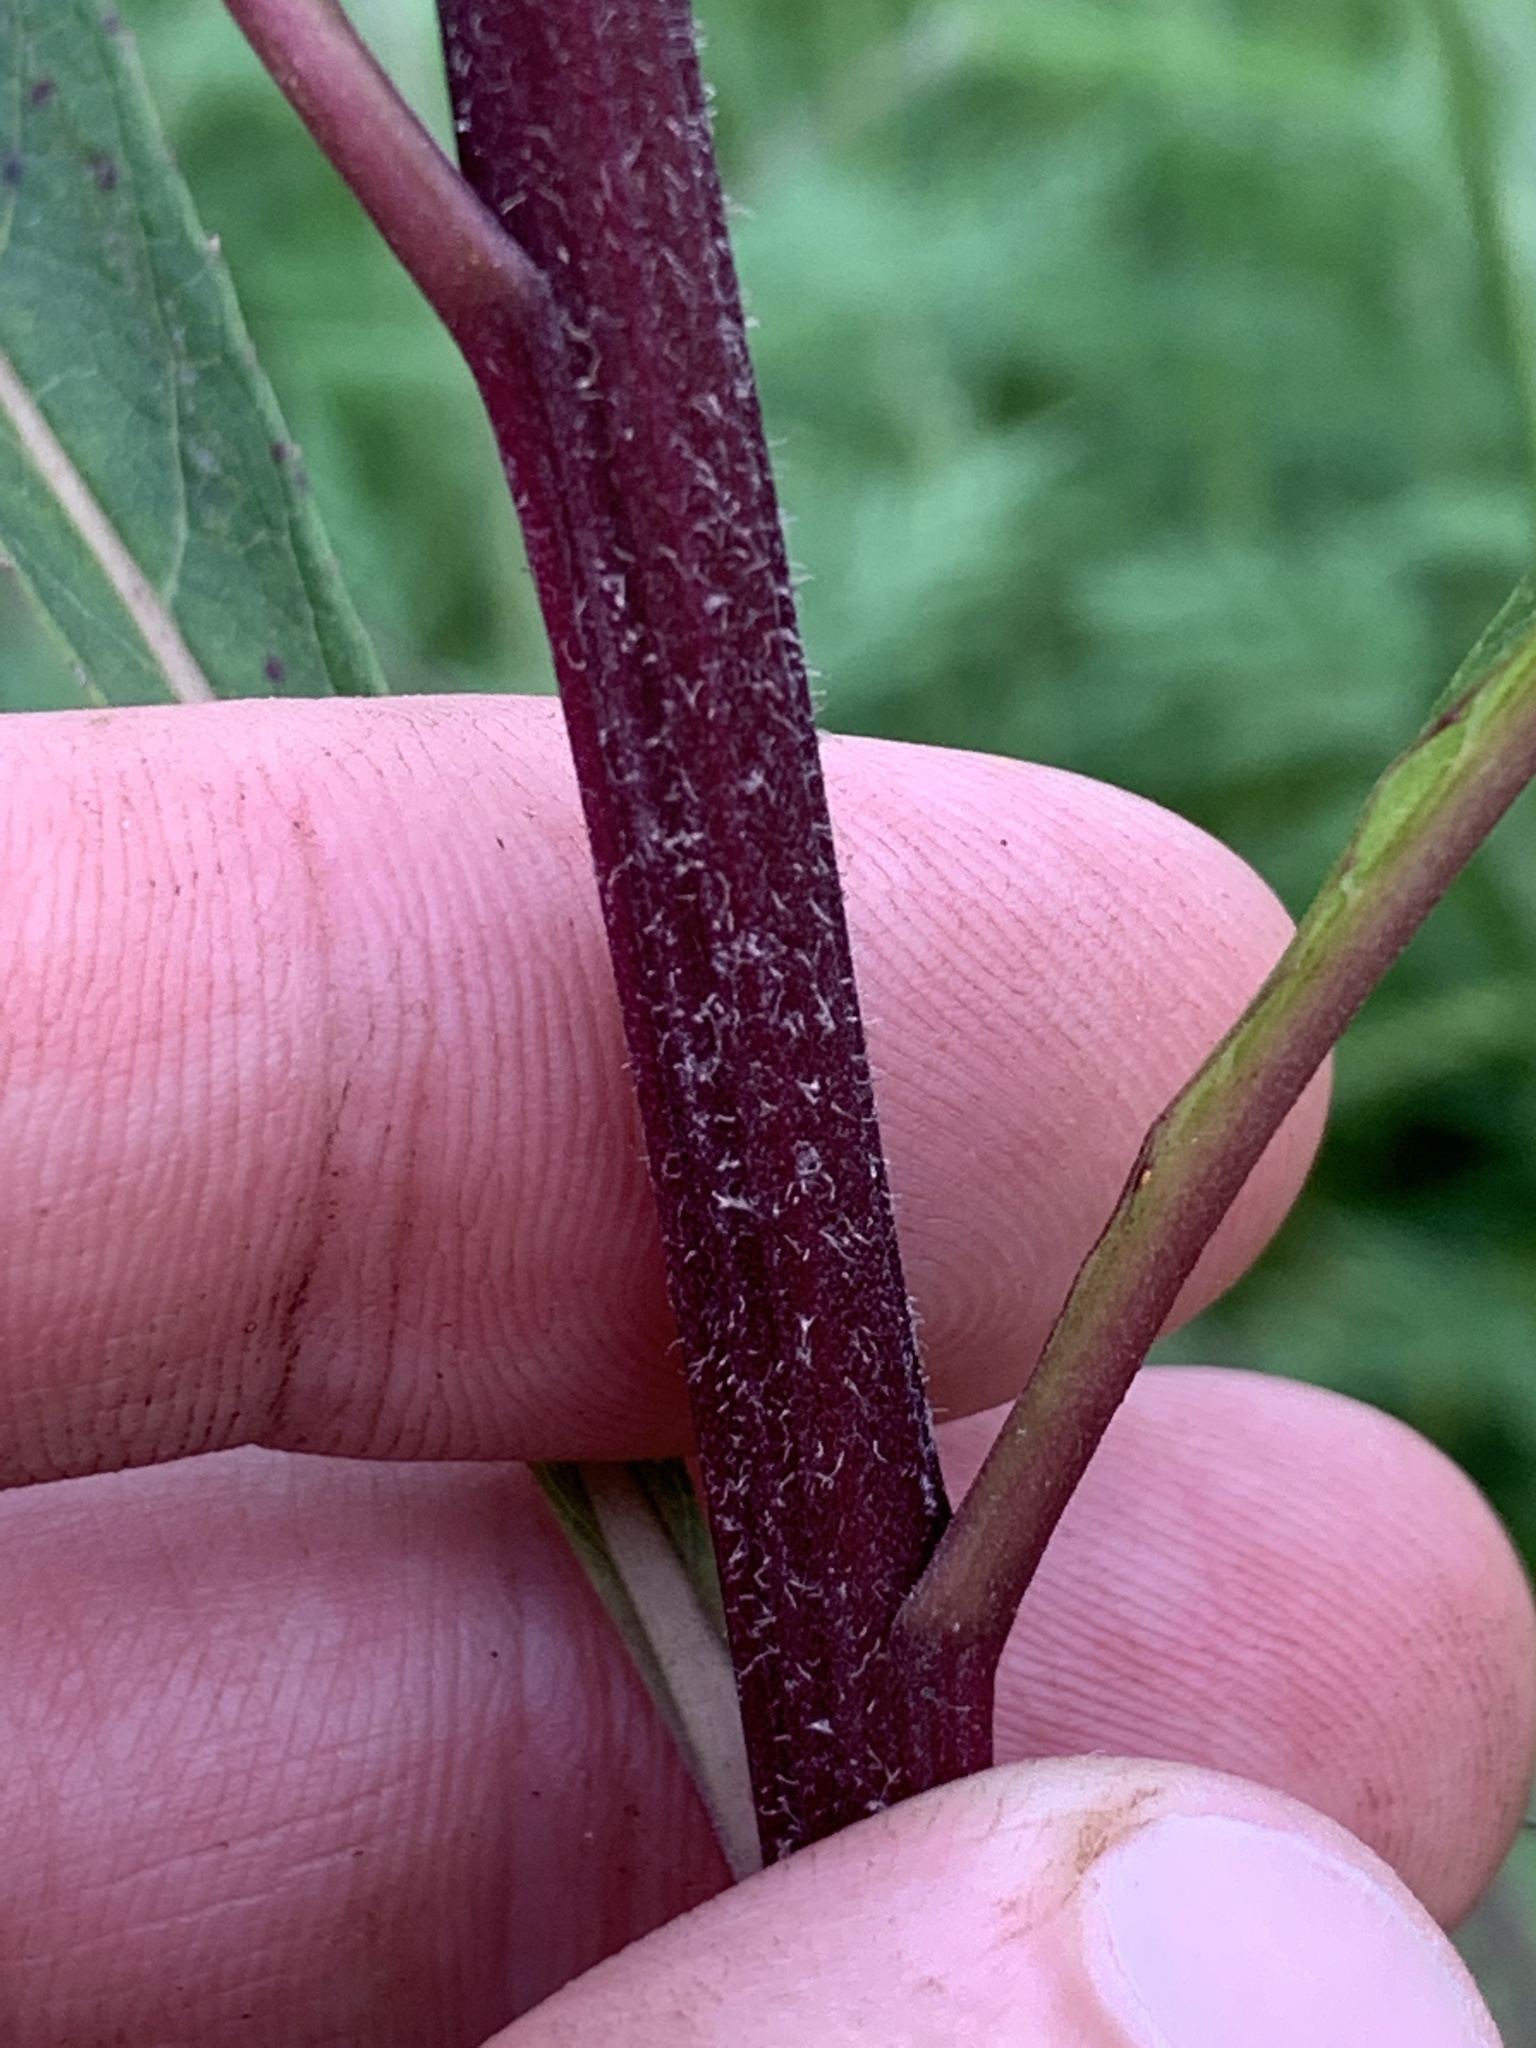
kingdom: Plantae
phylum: Tracheophyta
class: Magnoliopsida
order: Asterales
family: Asteraceae
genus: Vernonia
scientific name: Vernonia gigantea
